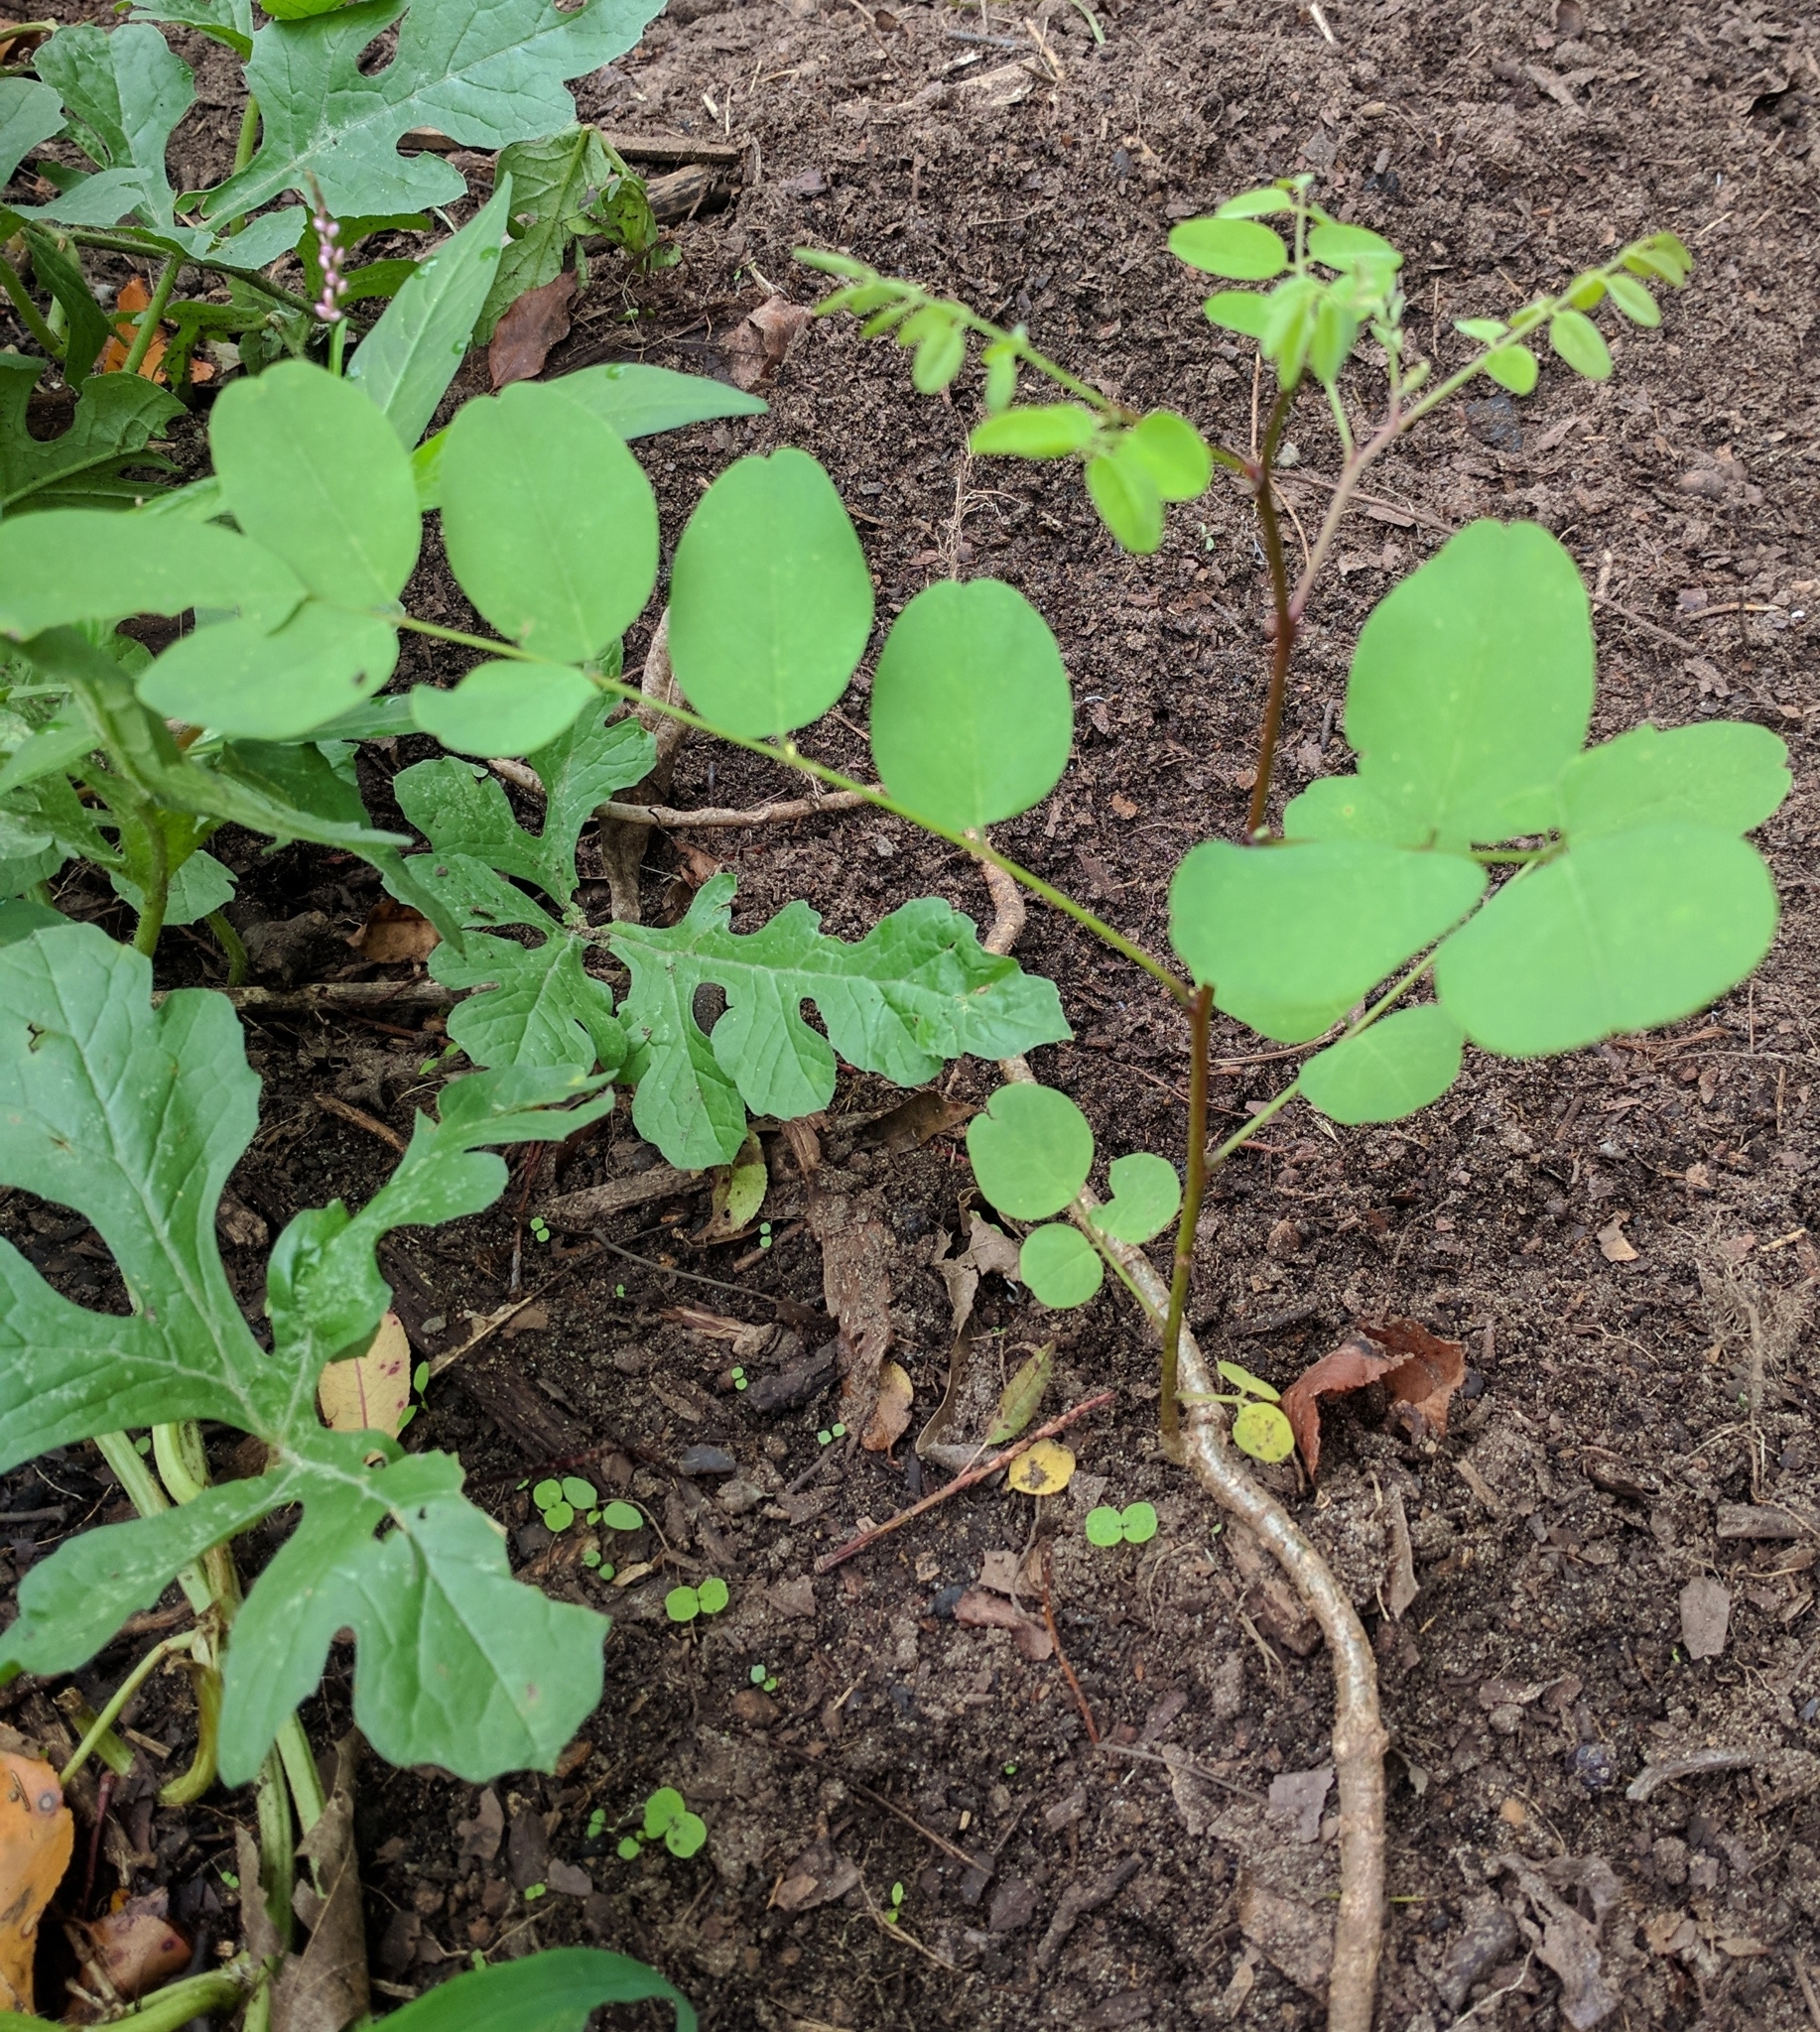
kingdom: Plantae
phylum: Tracheophyta
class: Magnoliopsida
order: Fabales
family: Fabaceae
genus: Robinia
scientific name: Robinia pseudoacacia
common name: Black locust
